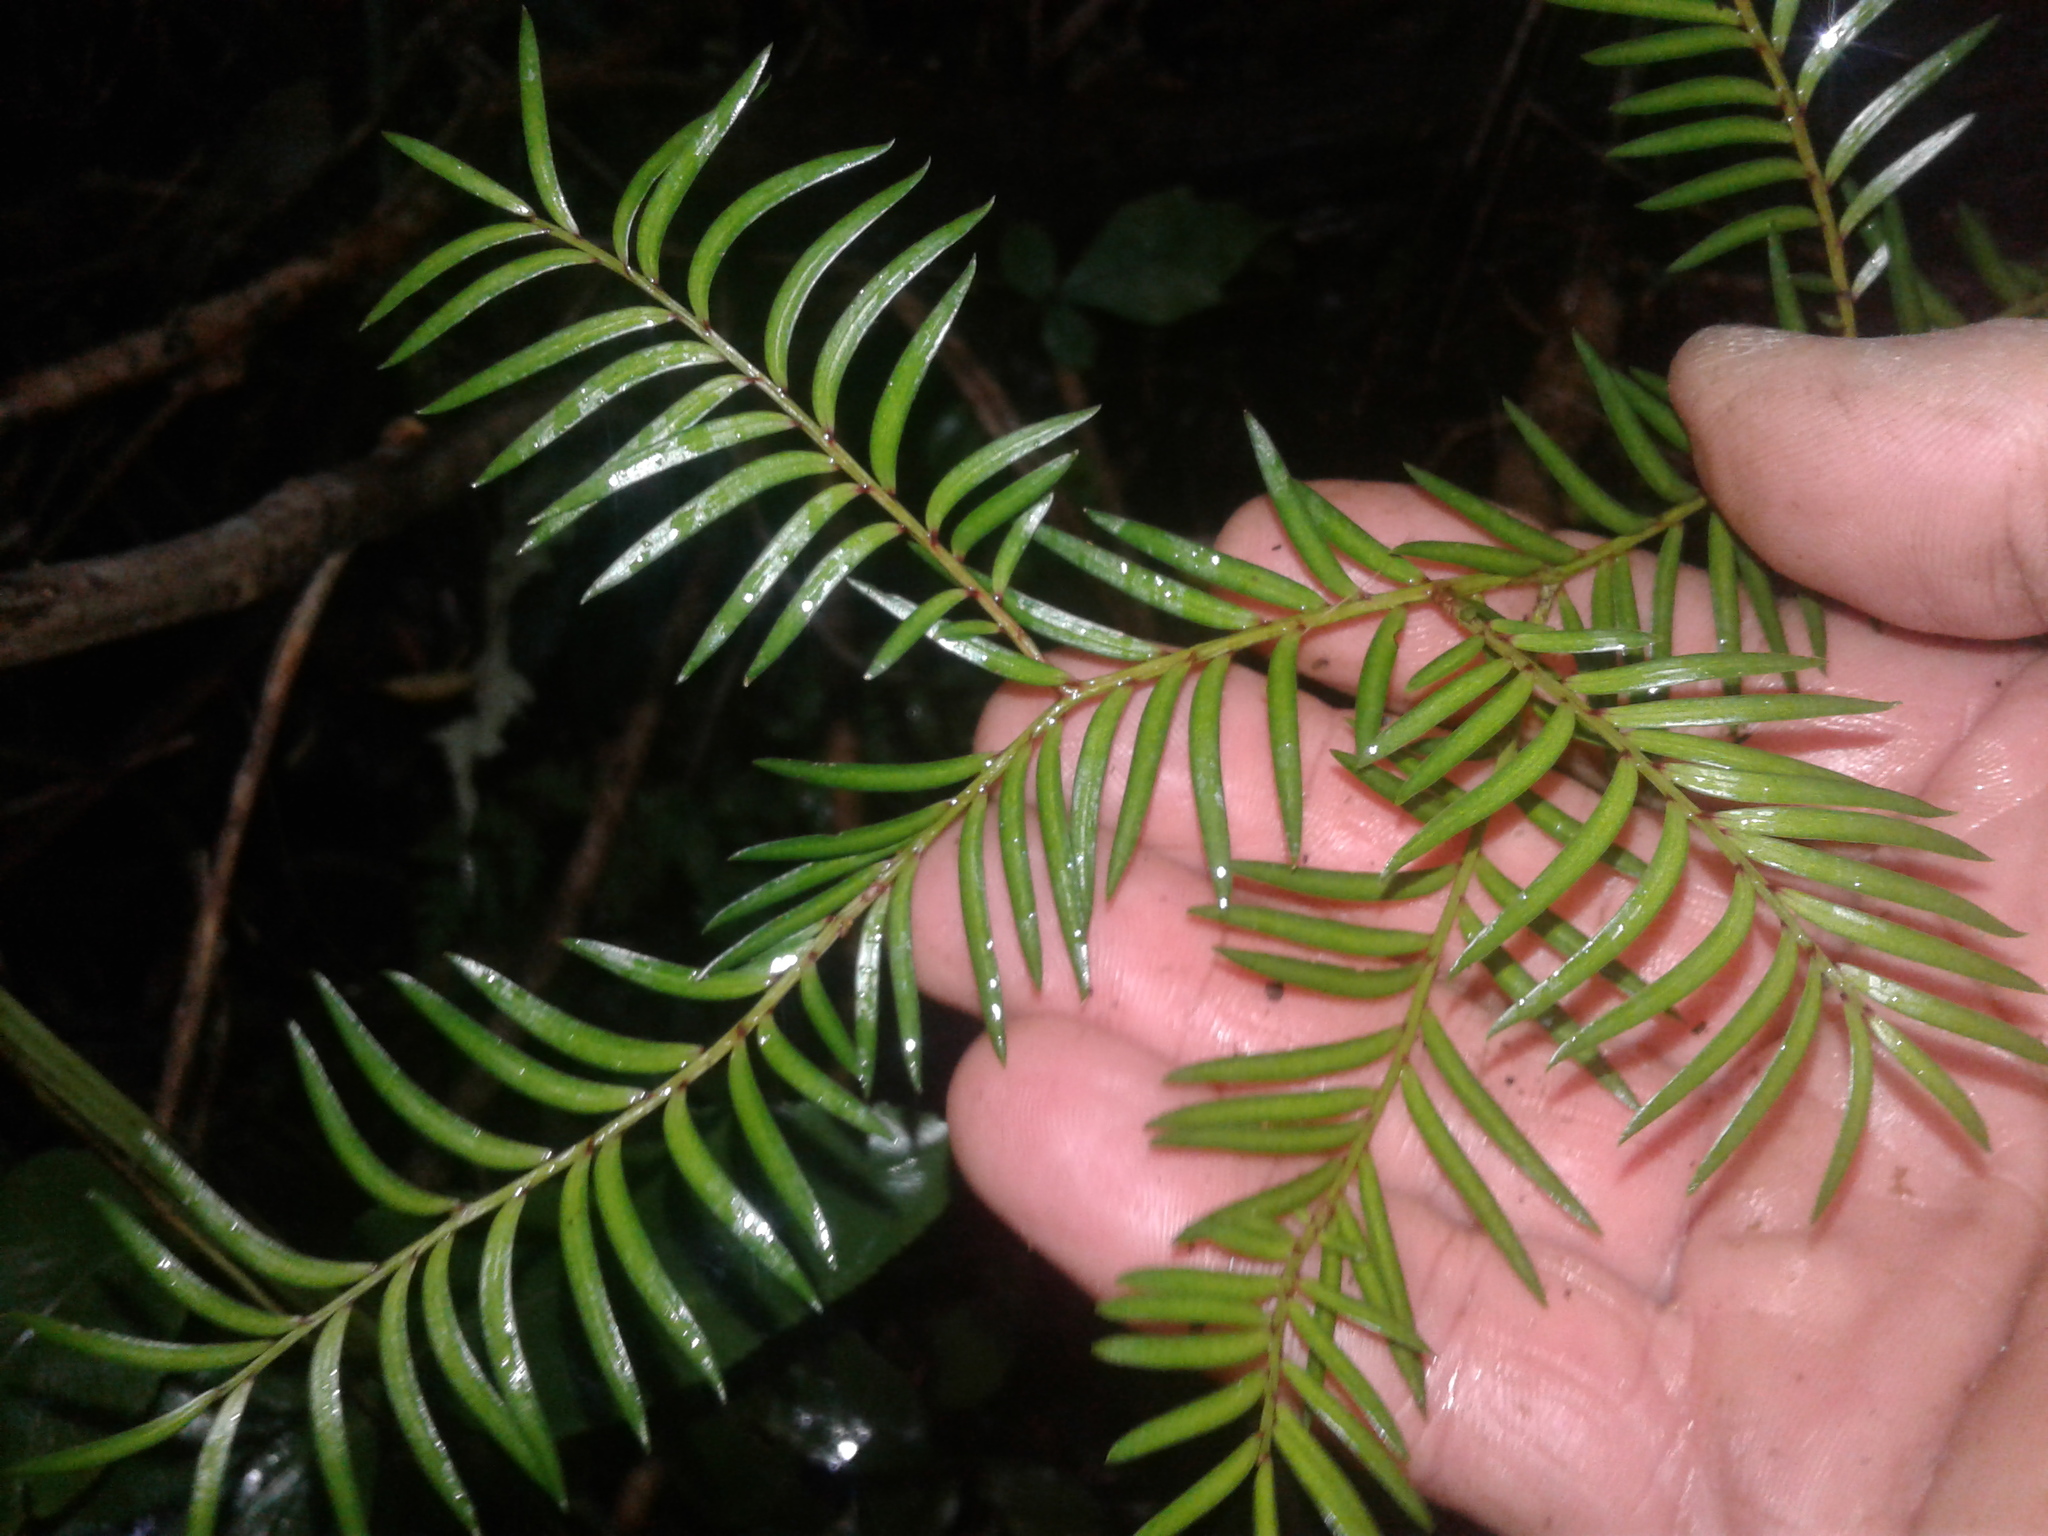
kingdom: Plantae
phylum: Tracheophyta
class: Pinopsida
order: Pinales
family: Podocarpaceae
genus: Prumnopitys
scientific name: Prumnopitys ferruginea
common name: Brown pine
